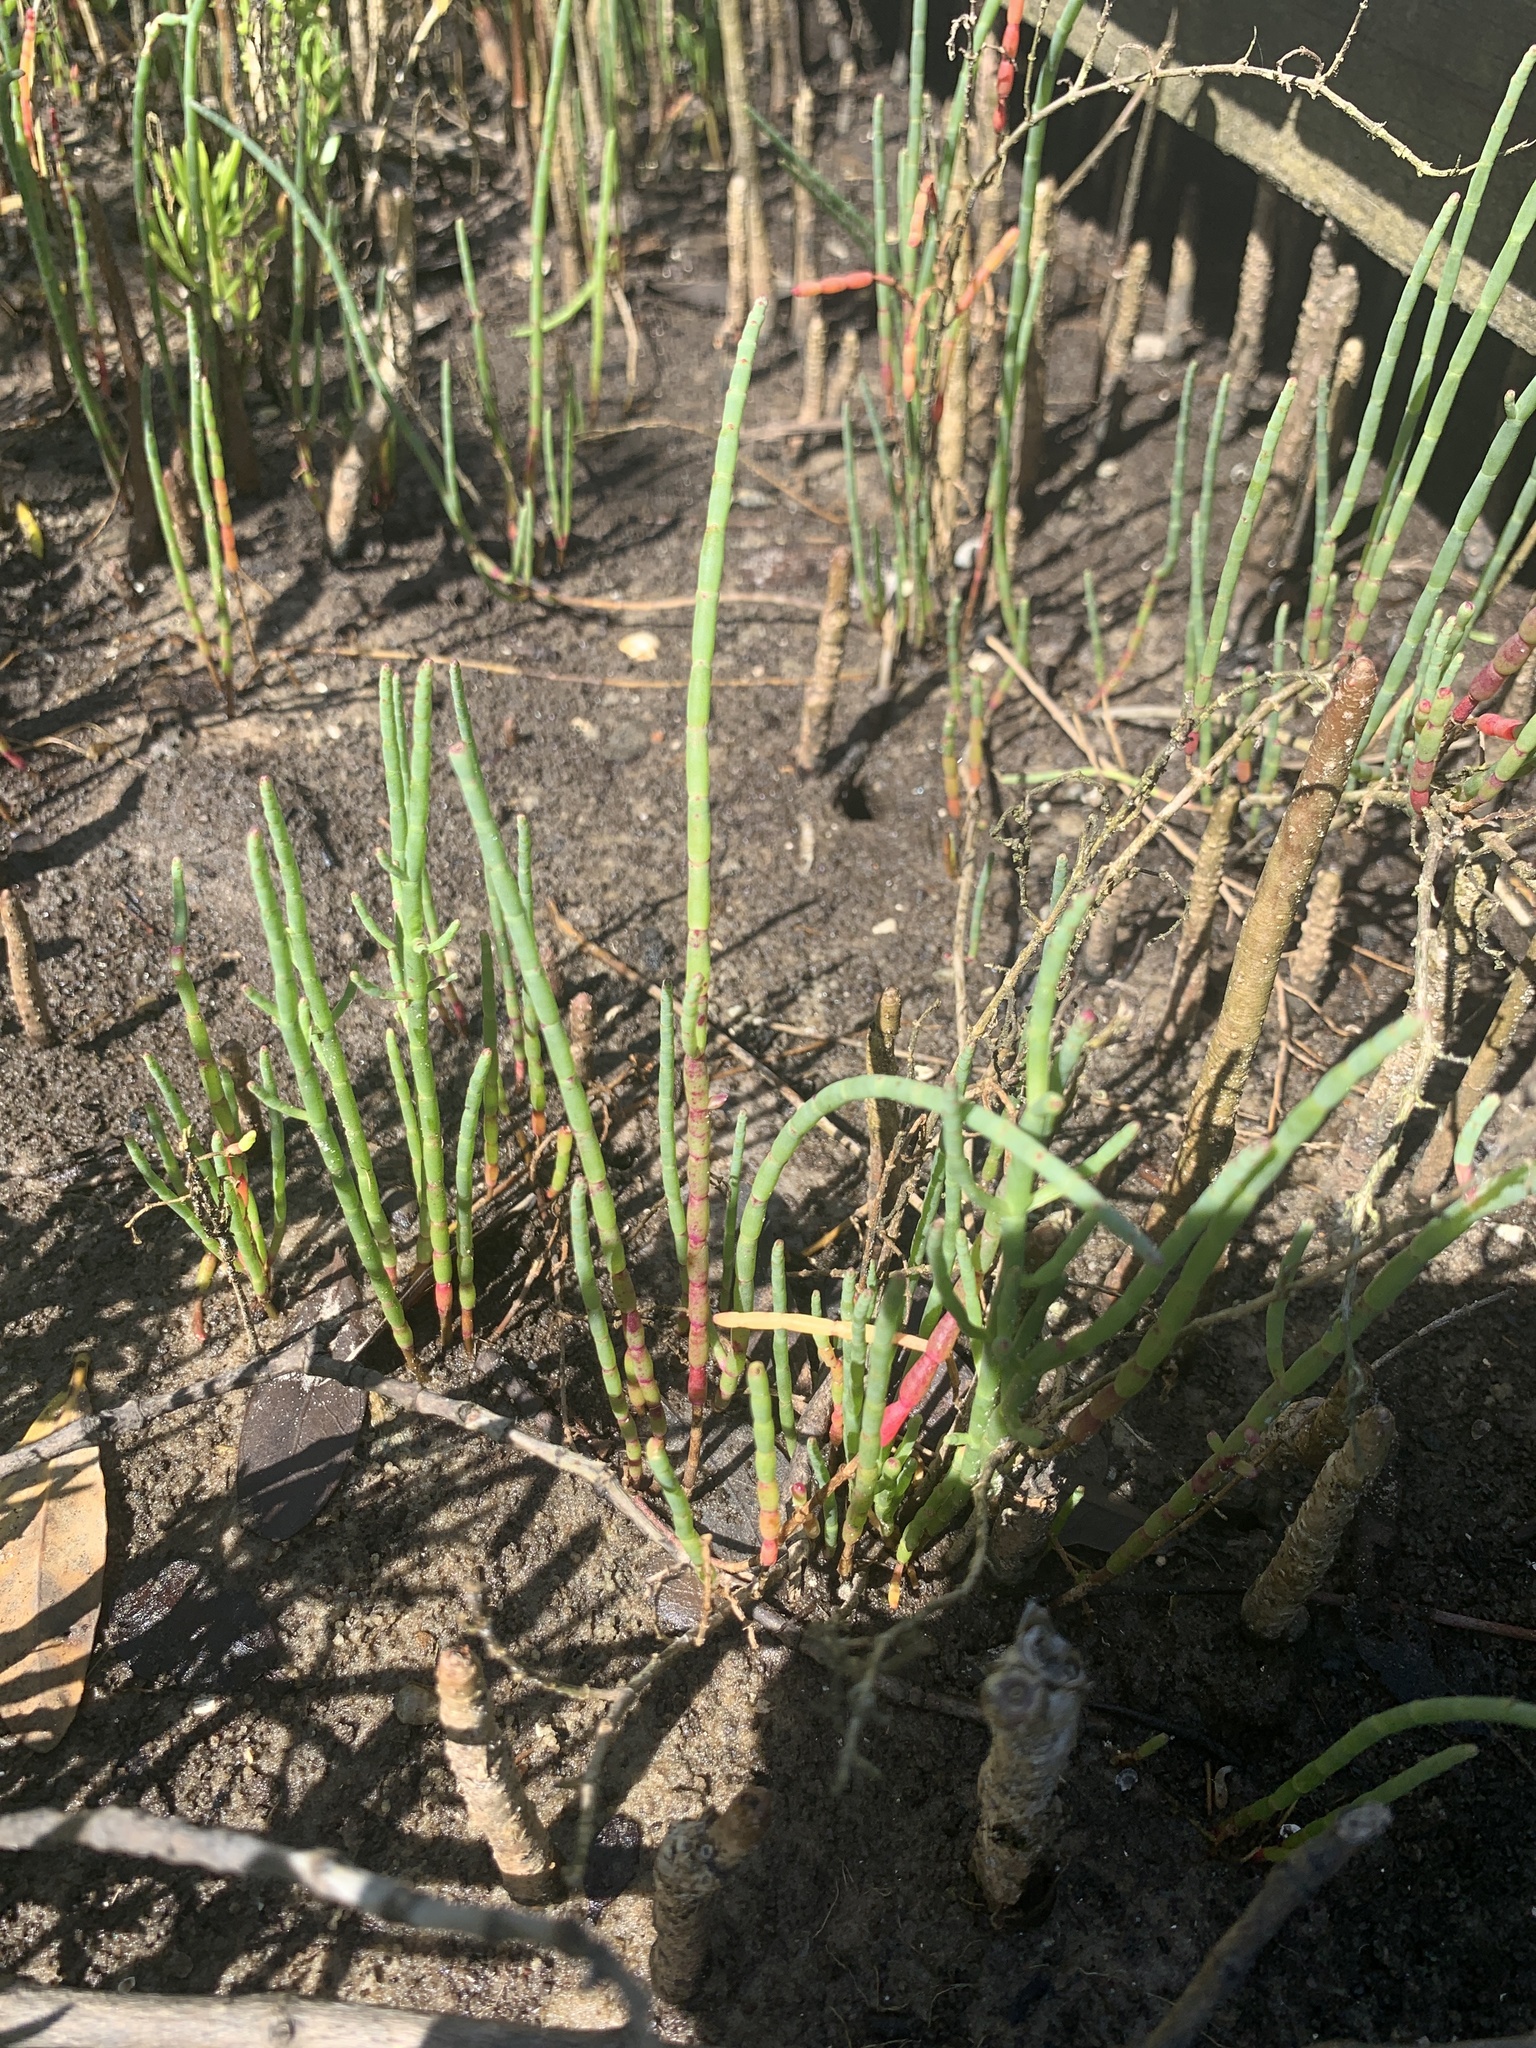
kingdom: Plantae
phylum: Tracheophyta
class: Magnoliopsida
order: Caryophyllales
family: Amaranthaceae
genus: Salicornia
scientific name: Salicornia ambigua
